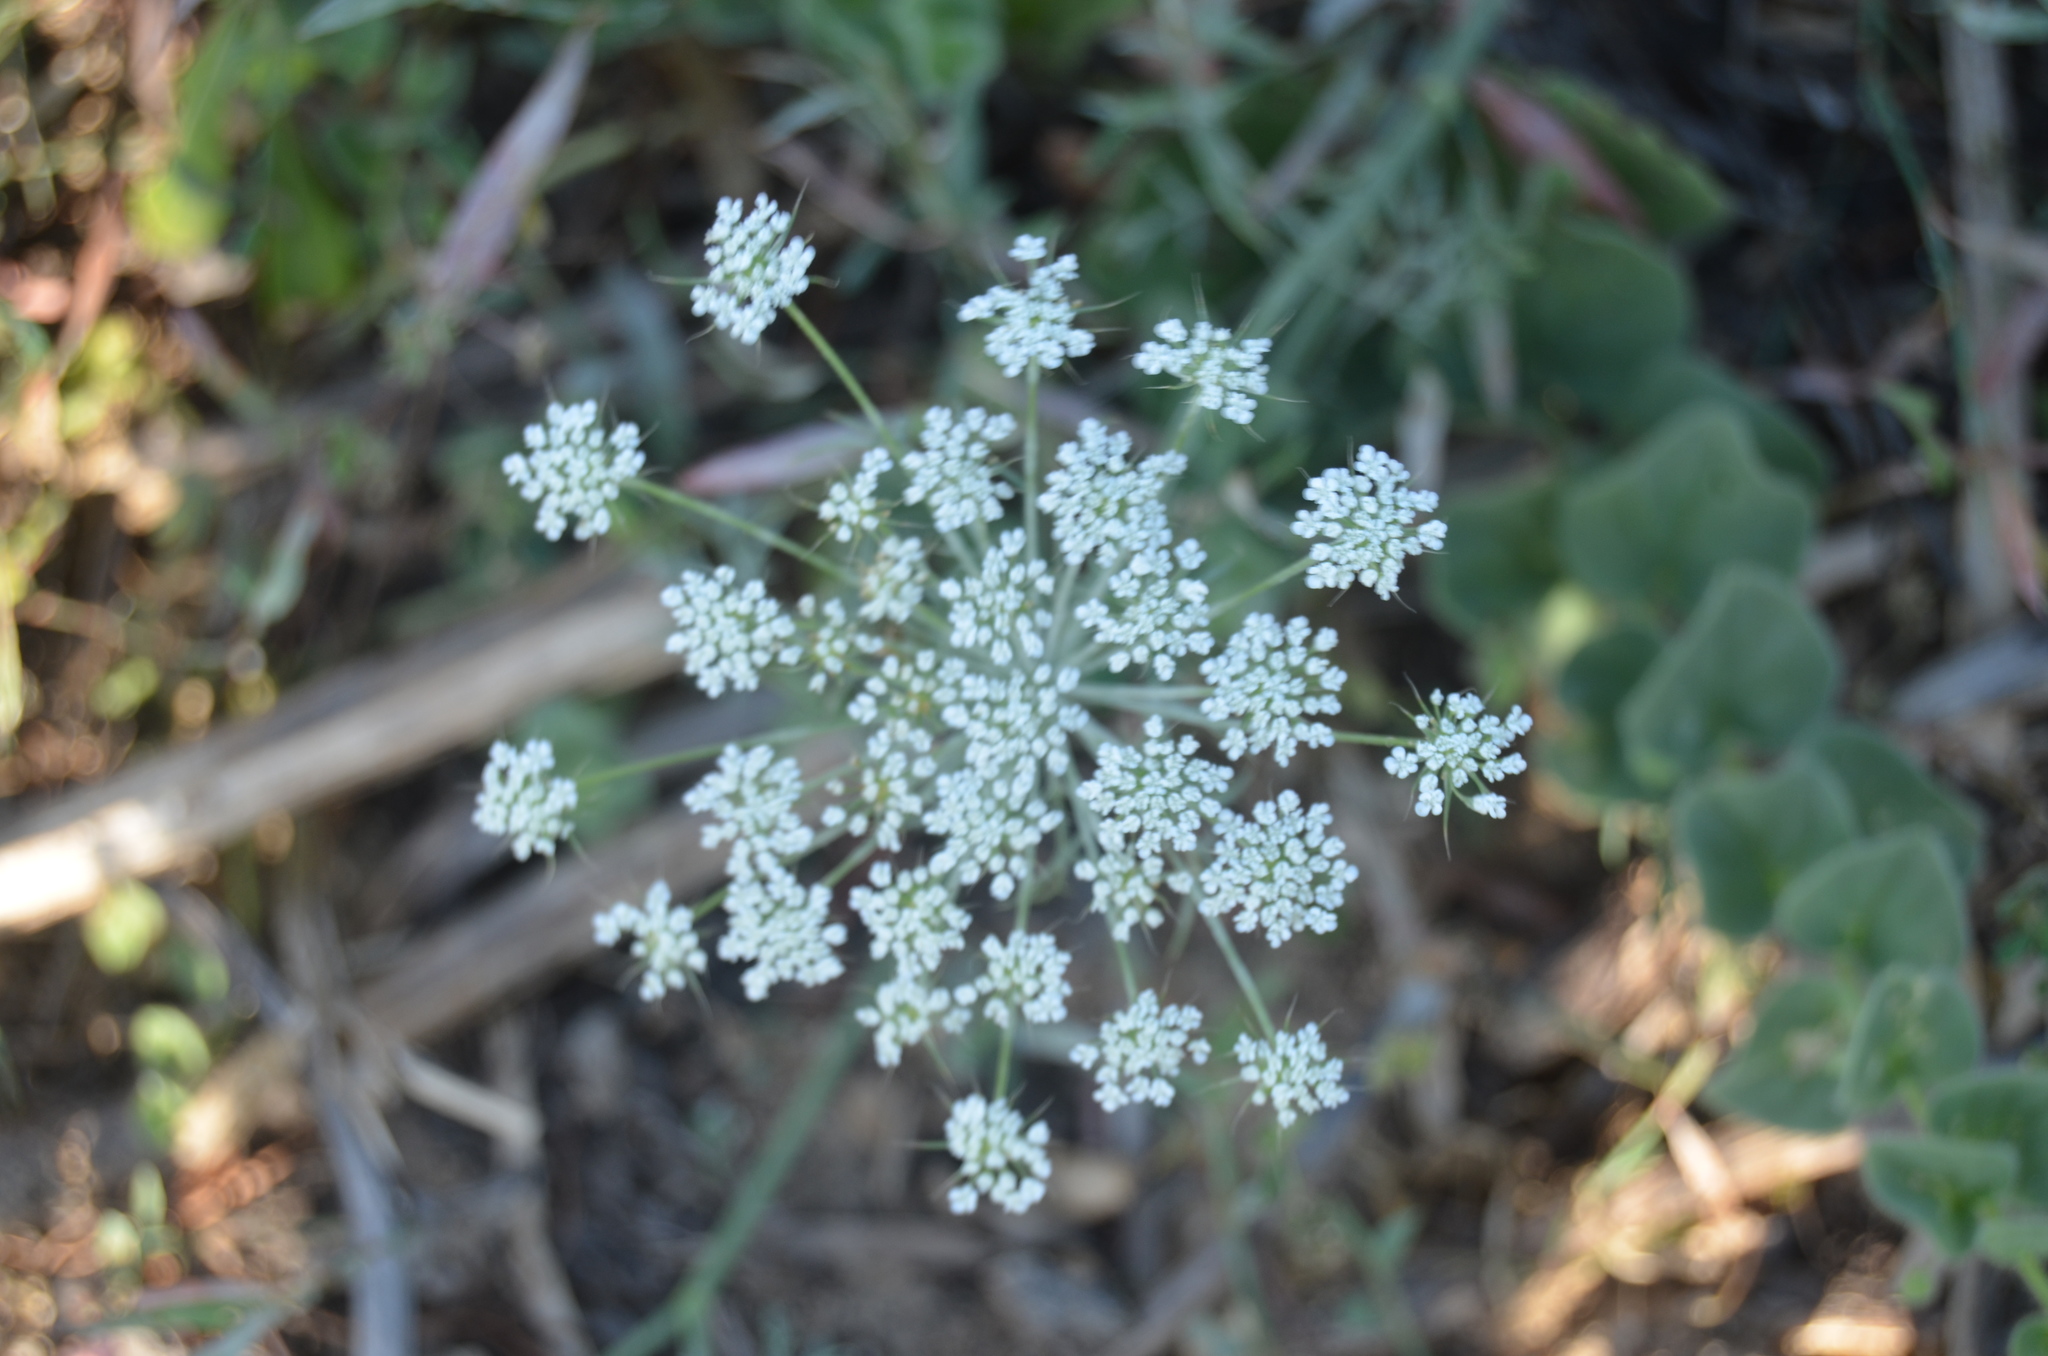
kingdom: Plantae
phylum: Tracheophyta
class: Magnoliopsida
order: Apiales
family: Apiaceae
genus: Daucus
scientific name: Daucus carota
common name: Wild carrot
